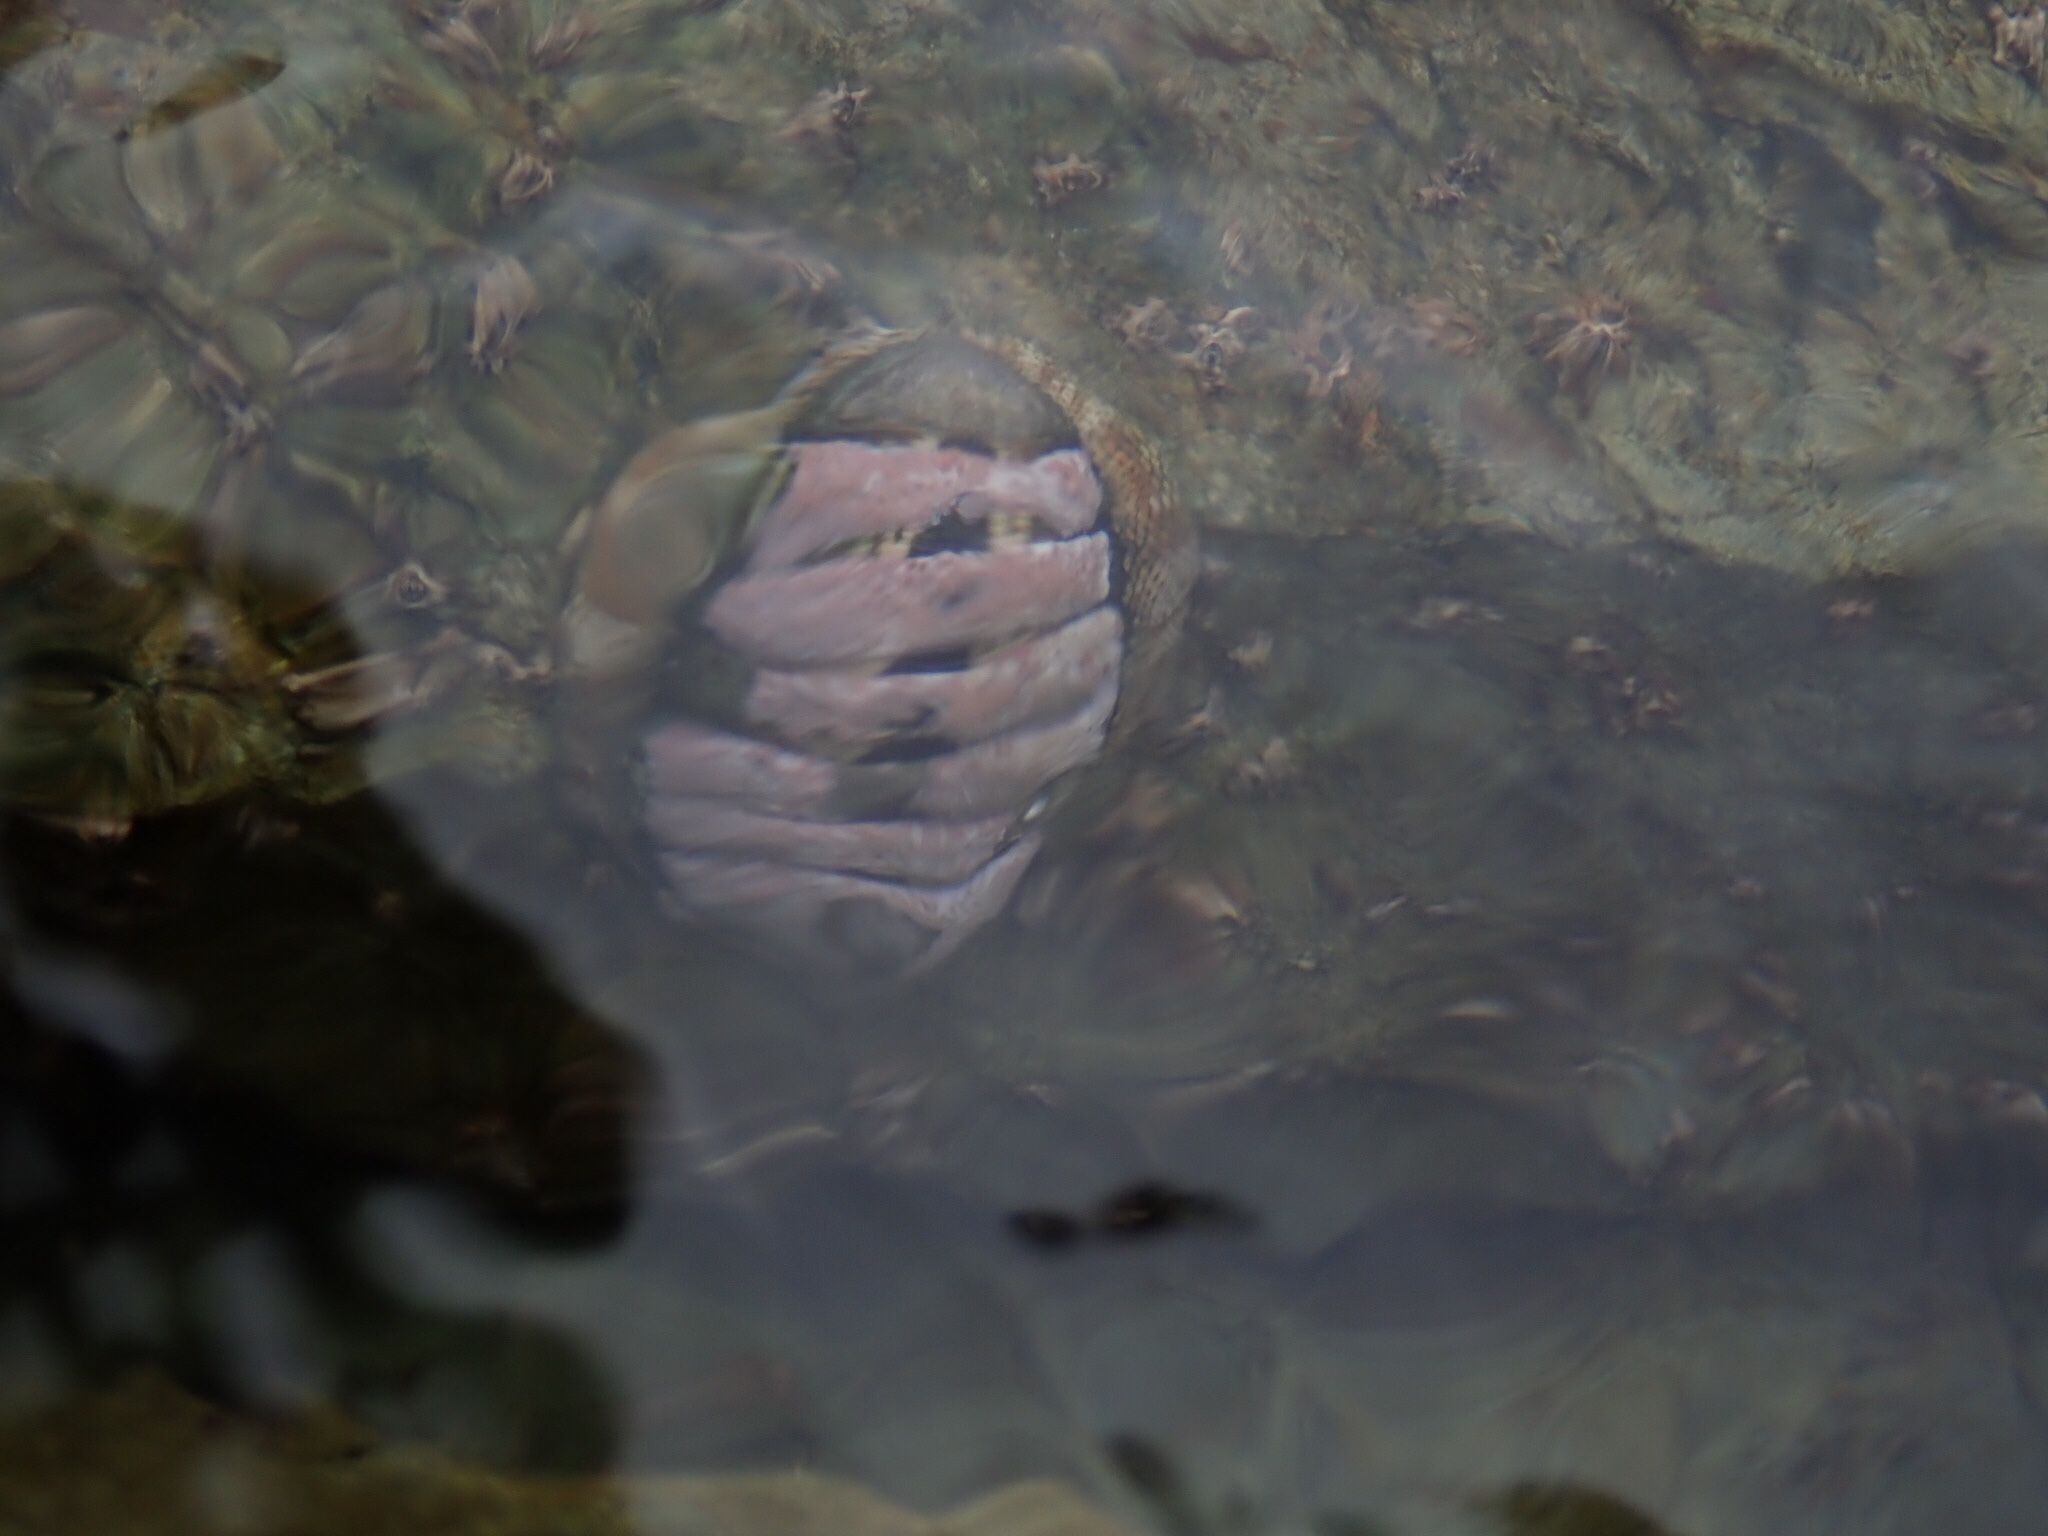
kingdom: Animalia
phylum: Mollusca
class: Polyplacophora
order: Chitonida
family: Chitonidae
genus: Sypharochiton
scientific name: Sypharochiton pelliserpentis
